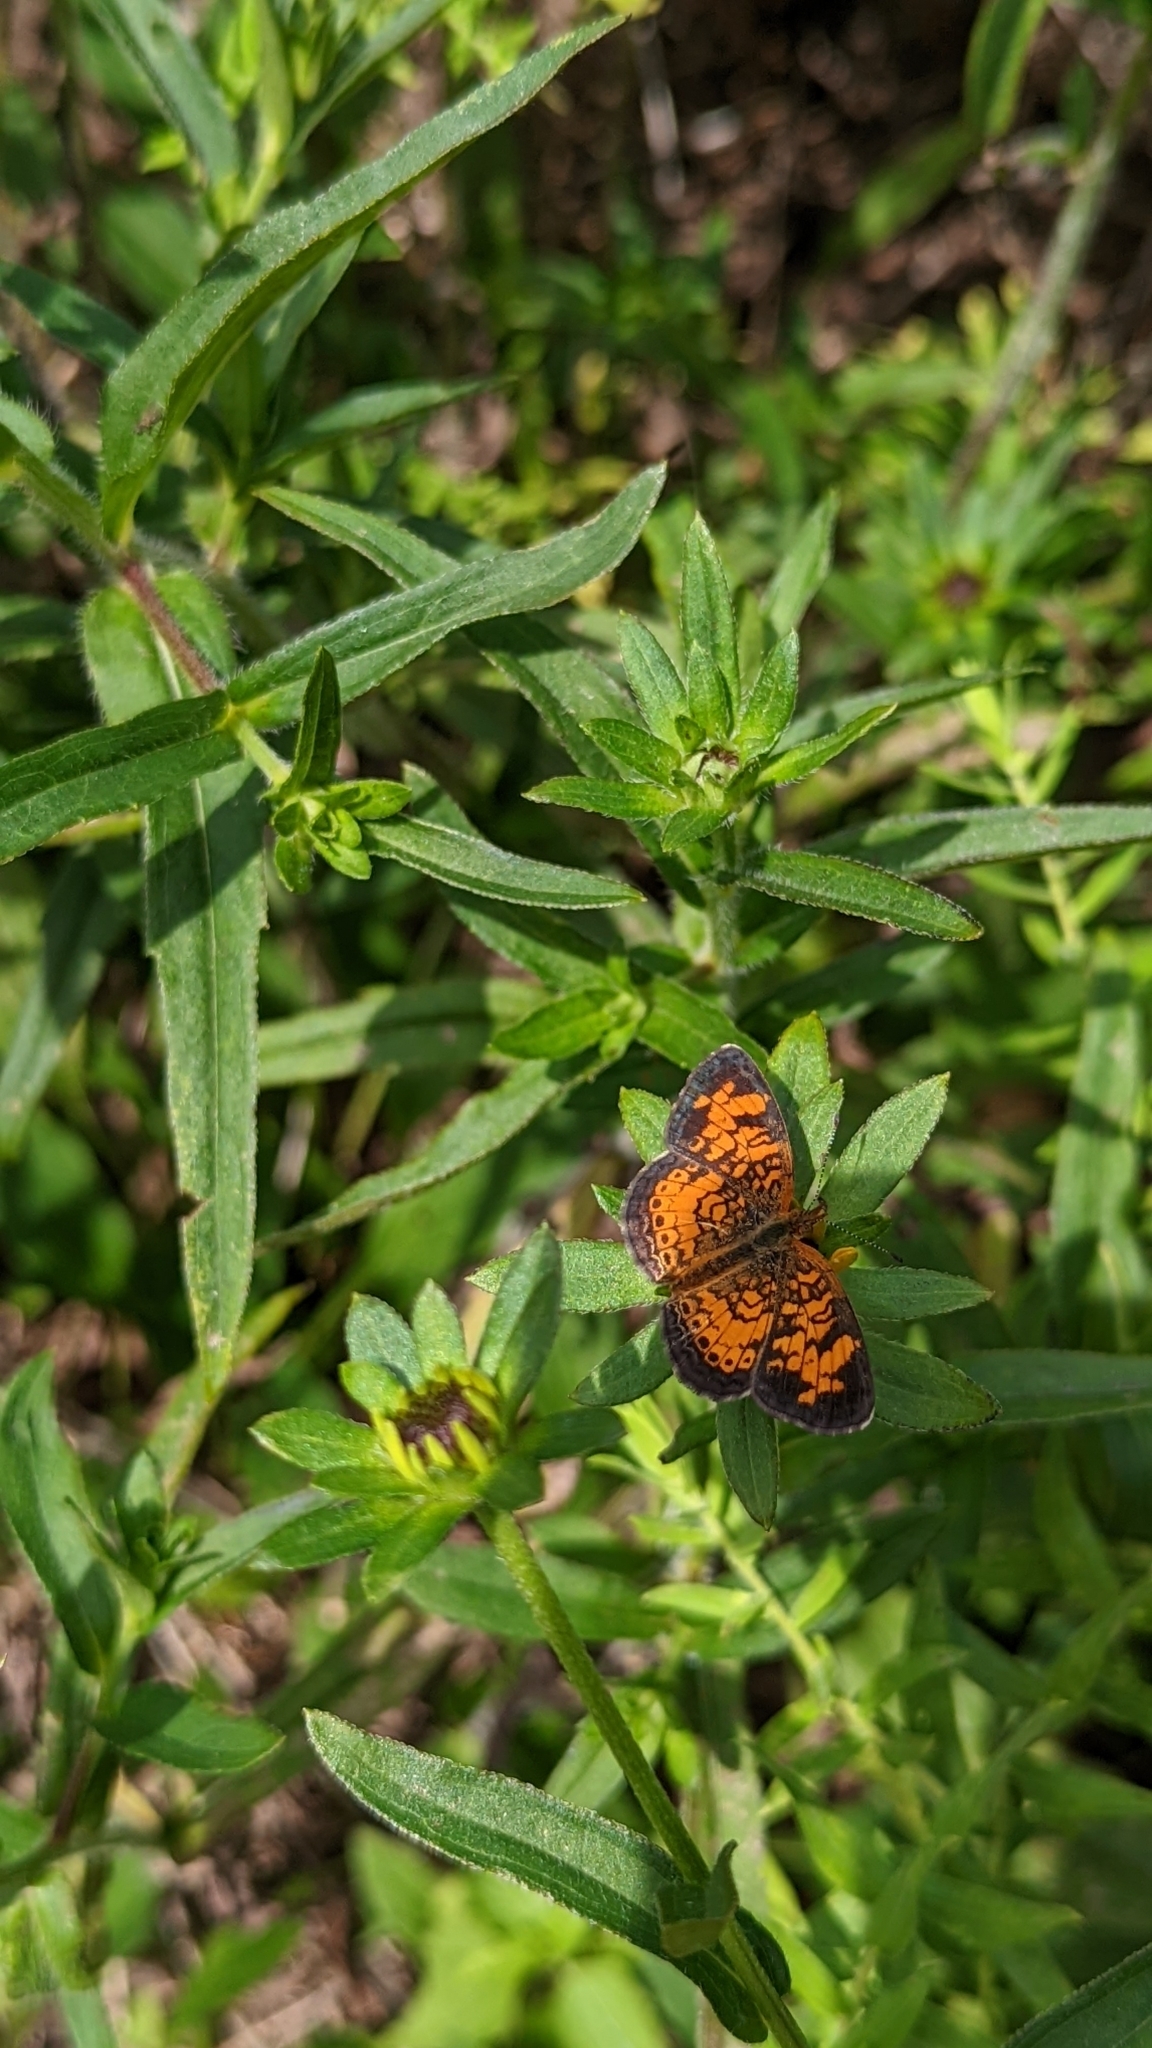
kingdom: Animalia
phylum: Arthropoda
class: Insecta
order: Lepidoptera
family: Nymphalidae
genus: Phyciodes
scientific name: Phyciodes tharos
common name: Pearl crescent
